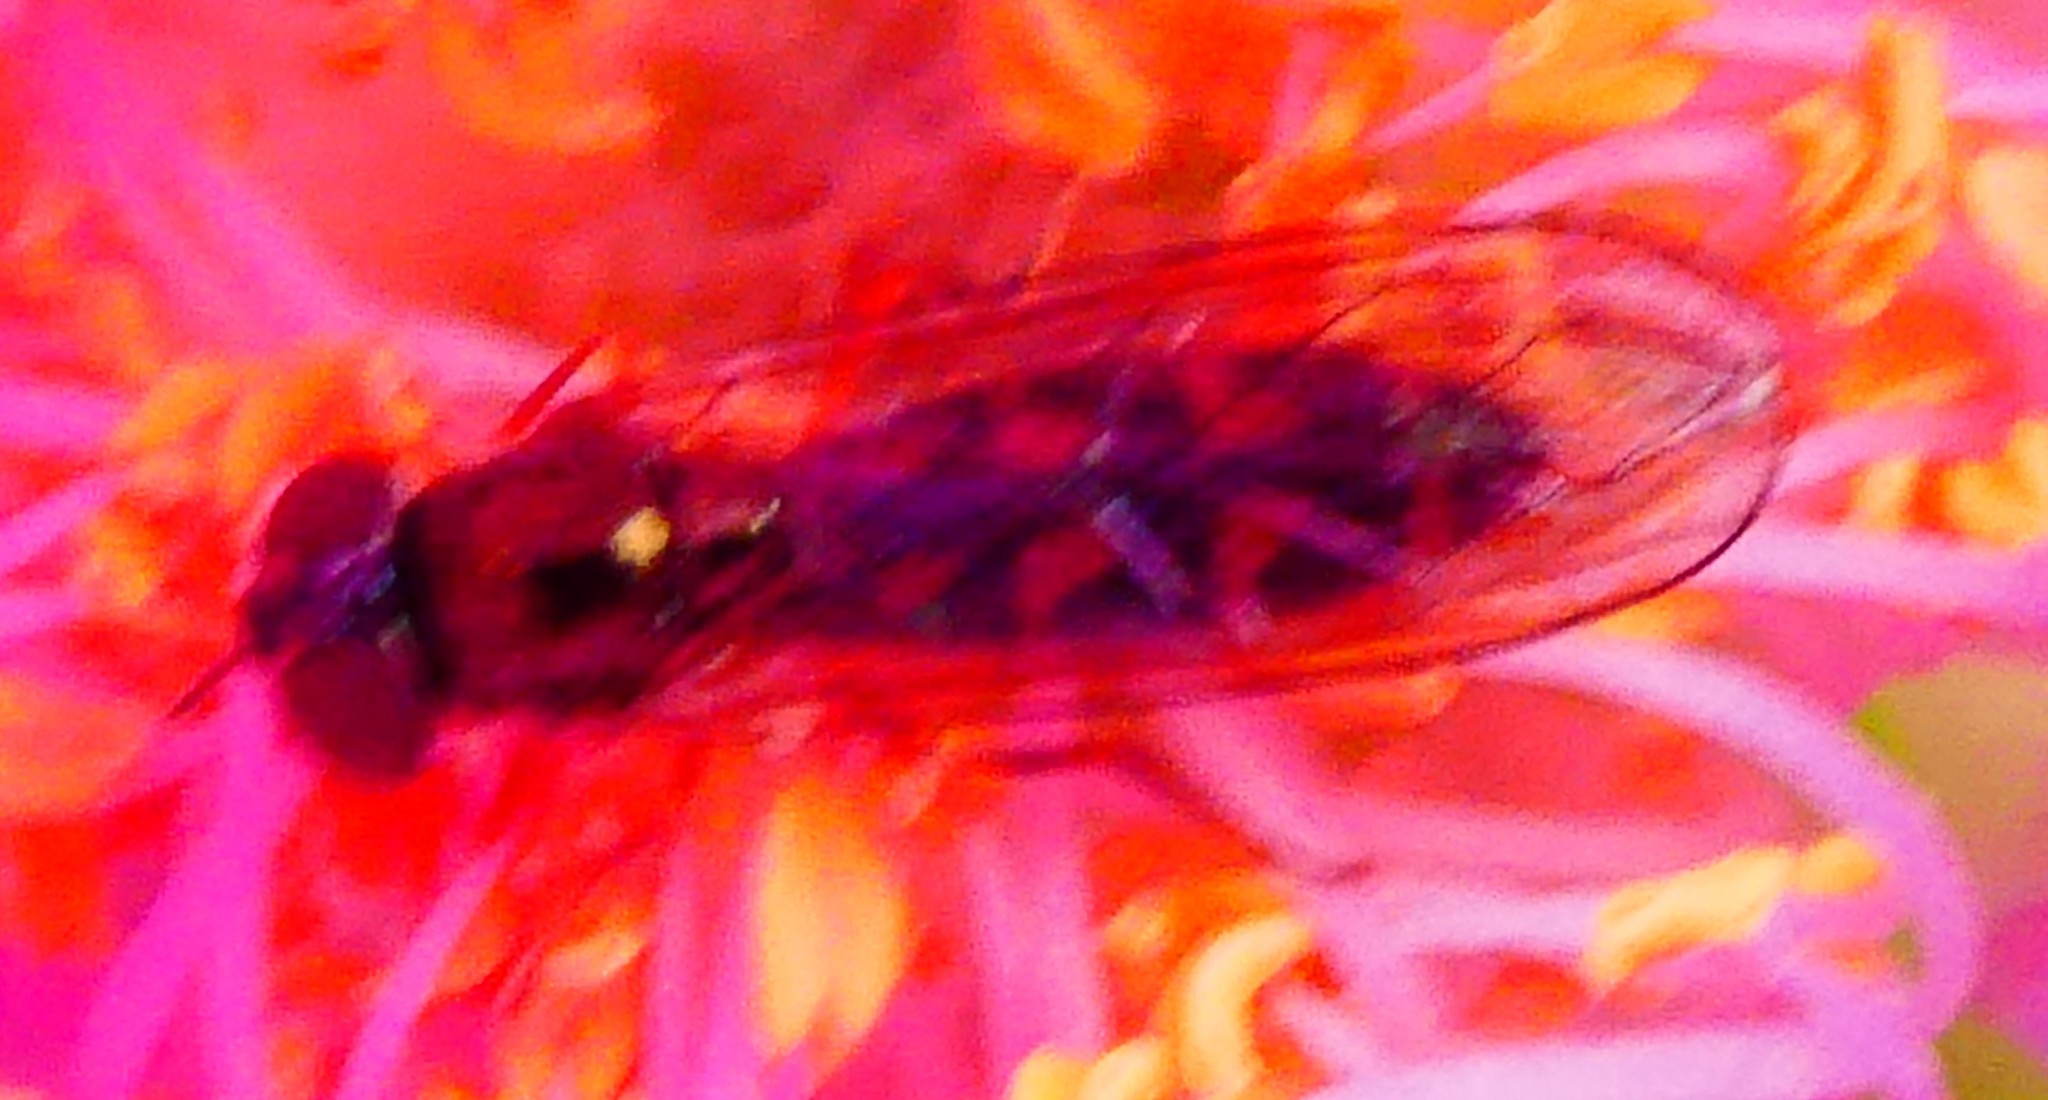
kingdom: Animalia
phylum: Arthropoda
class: Insecta
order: Diptera
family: Syrphidae
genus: Melanostoma
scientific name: Melanostoma
